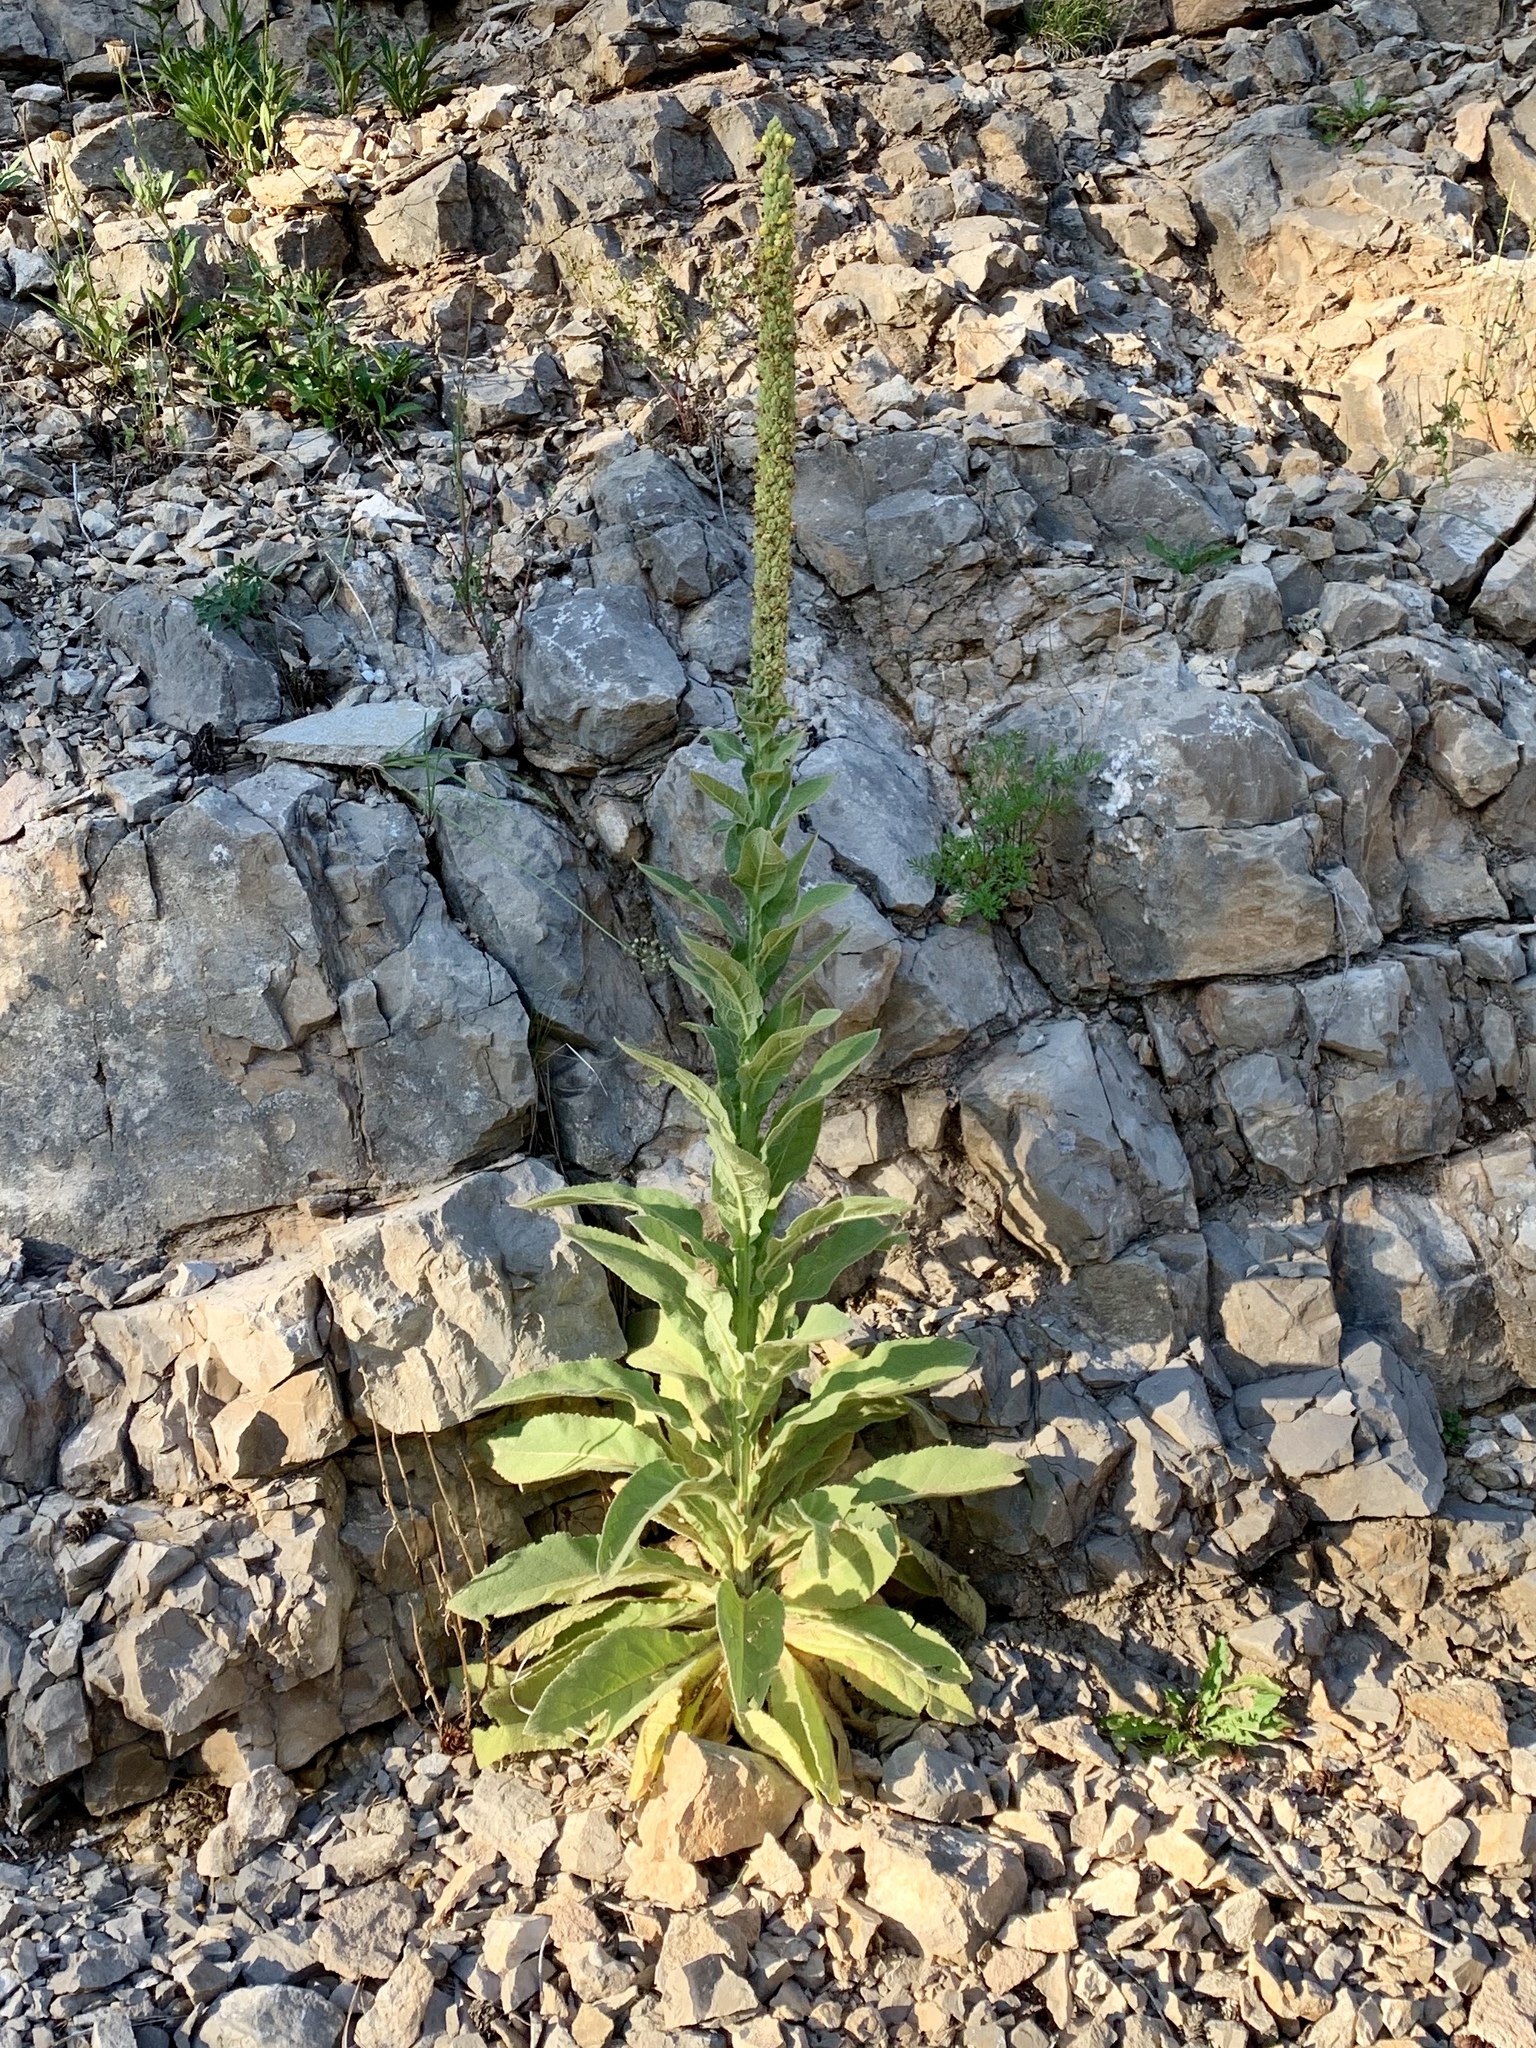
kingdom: Plantae
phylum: Tracheophyta
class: Magnoliopsida
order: Lamiales
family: Scrophulariaceae
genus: Verbascum
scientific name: Verbascum thapsus
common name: Common mullein
